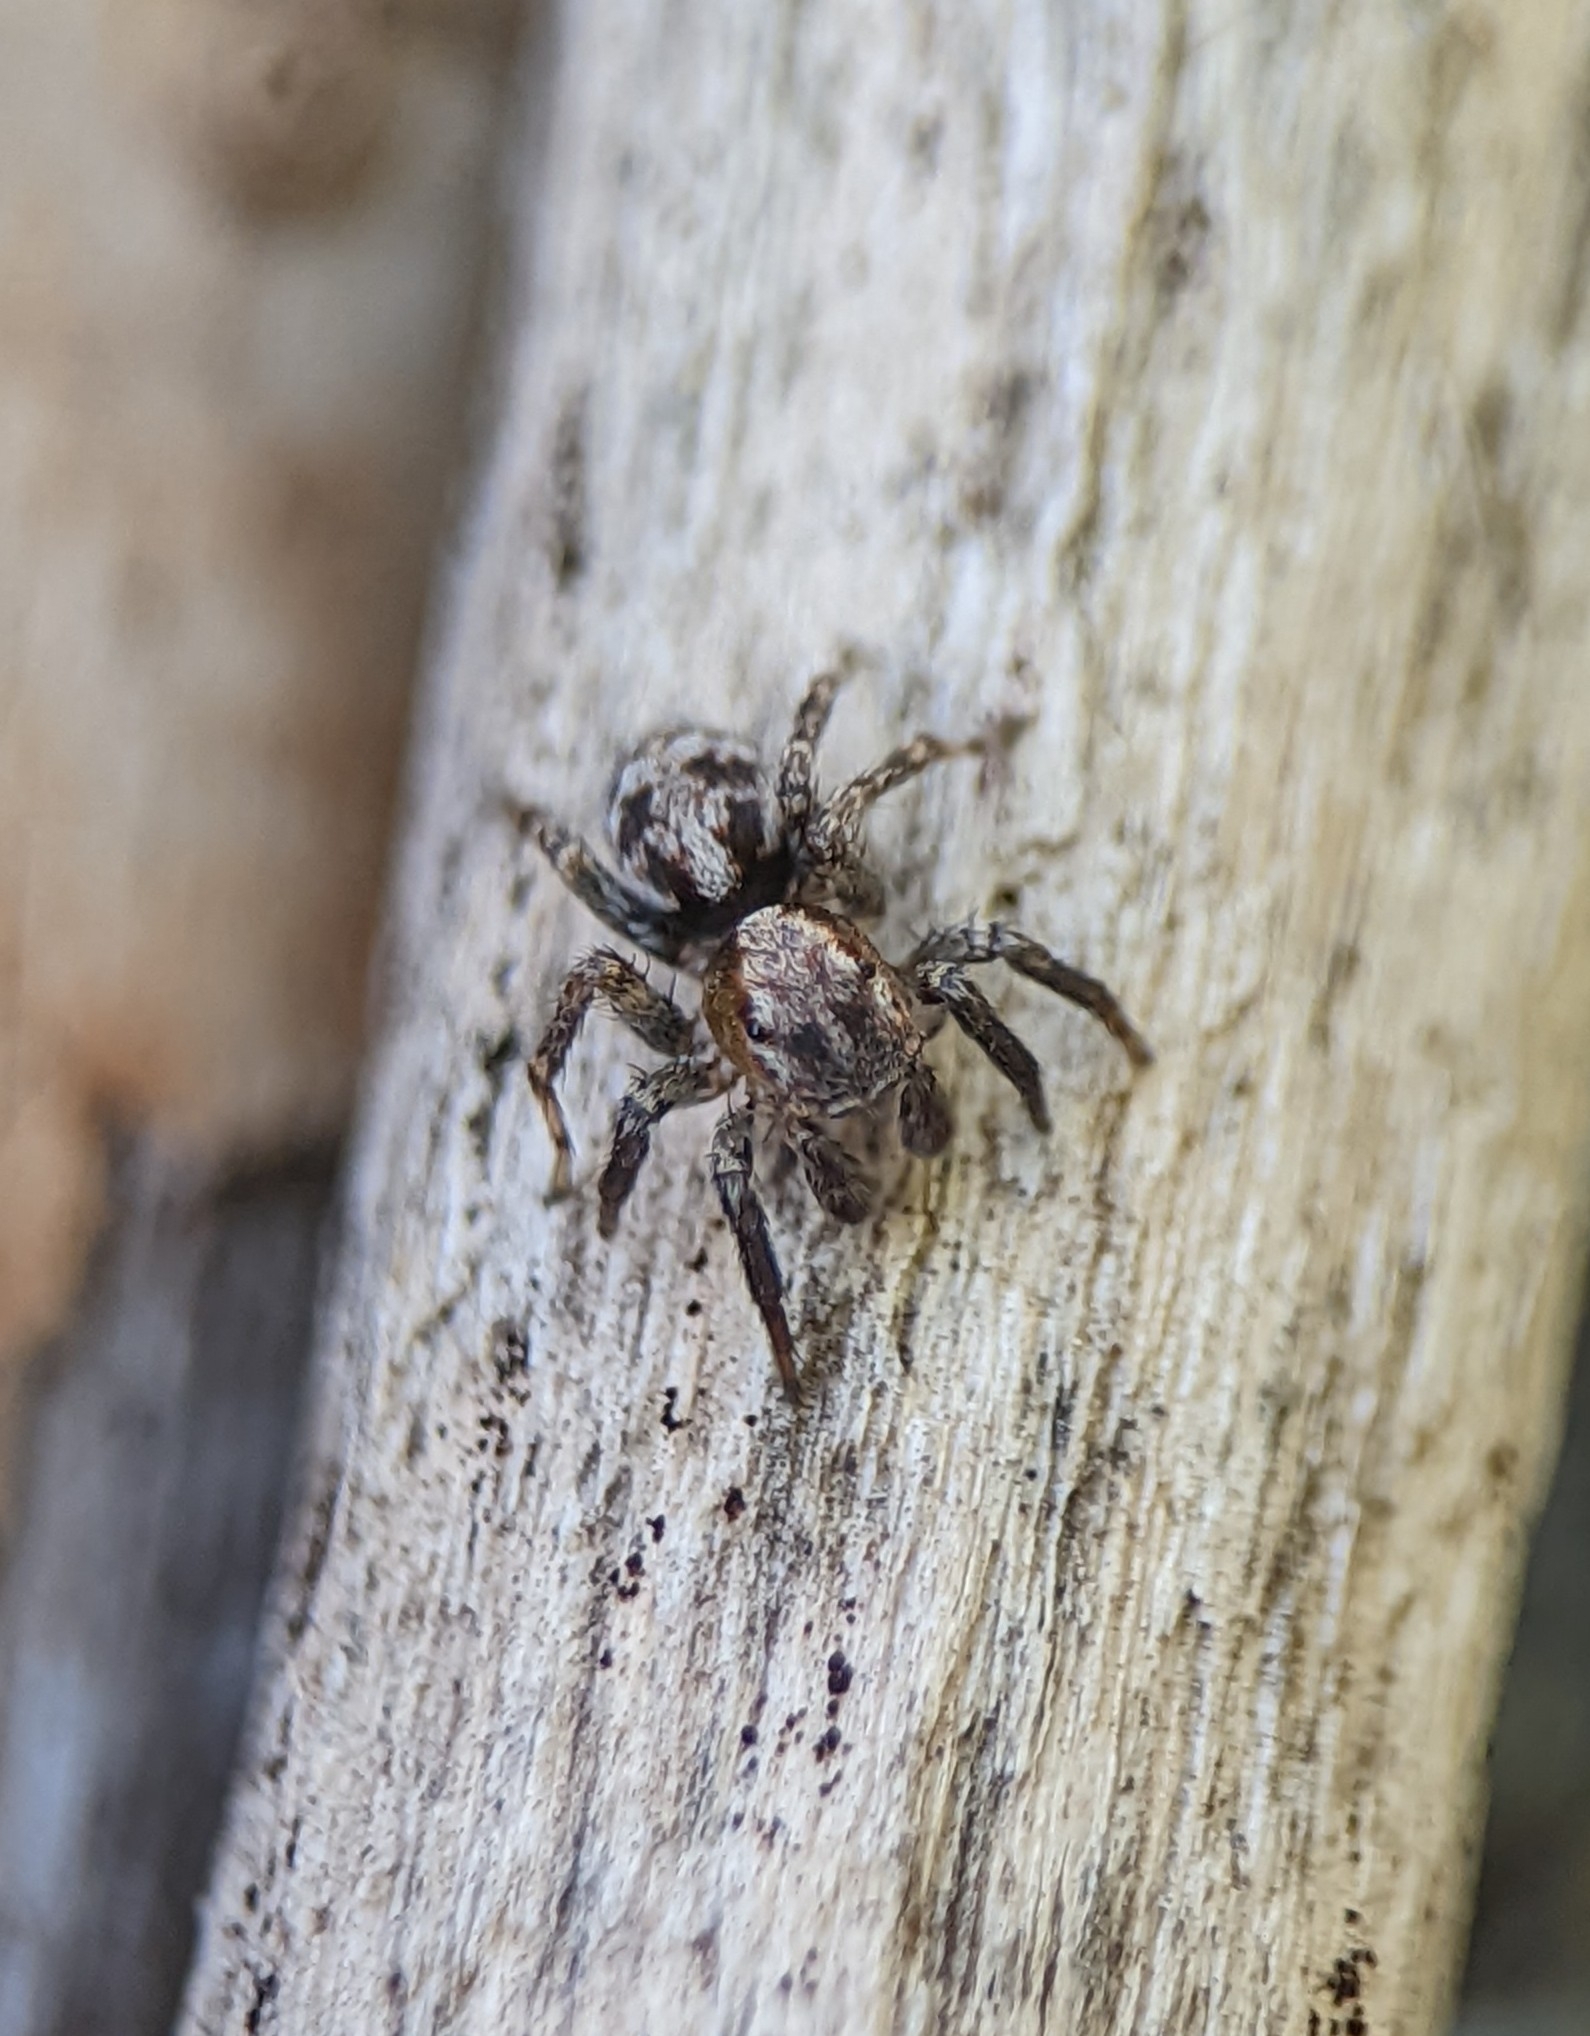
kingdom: Animalia
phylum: Arthropoda
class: Arachnida
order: Araneae
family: Salticidae
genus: Naphrys
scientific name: Naphrys pulex
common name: Flea jumping spider
